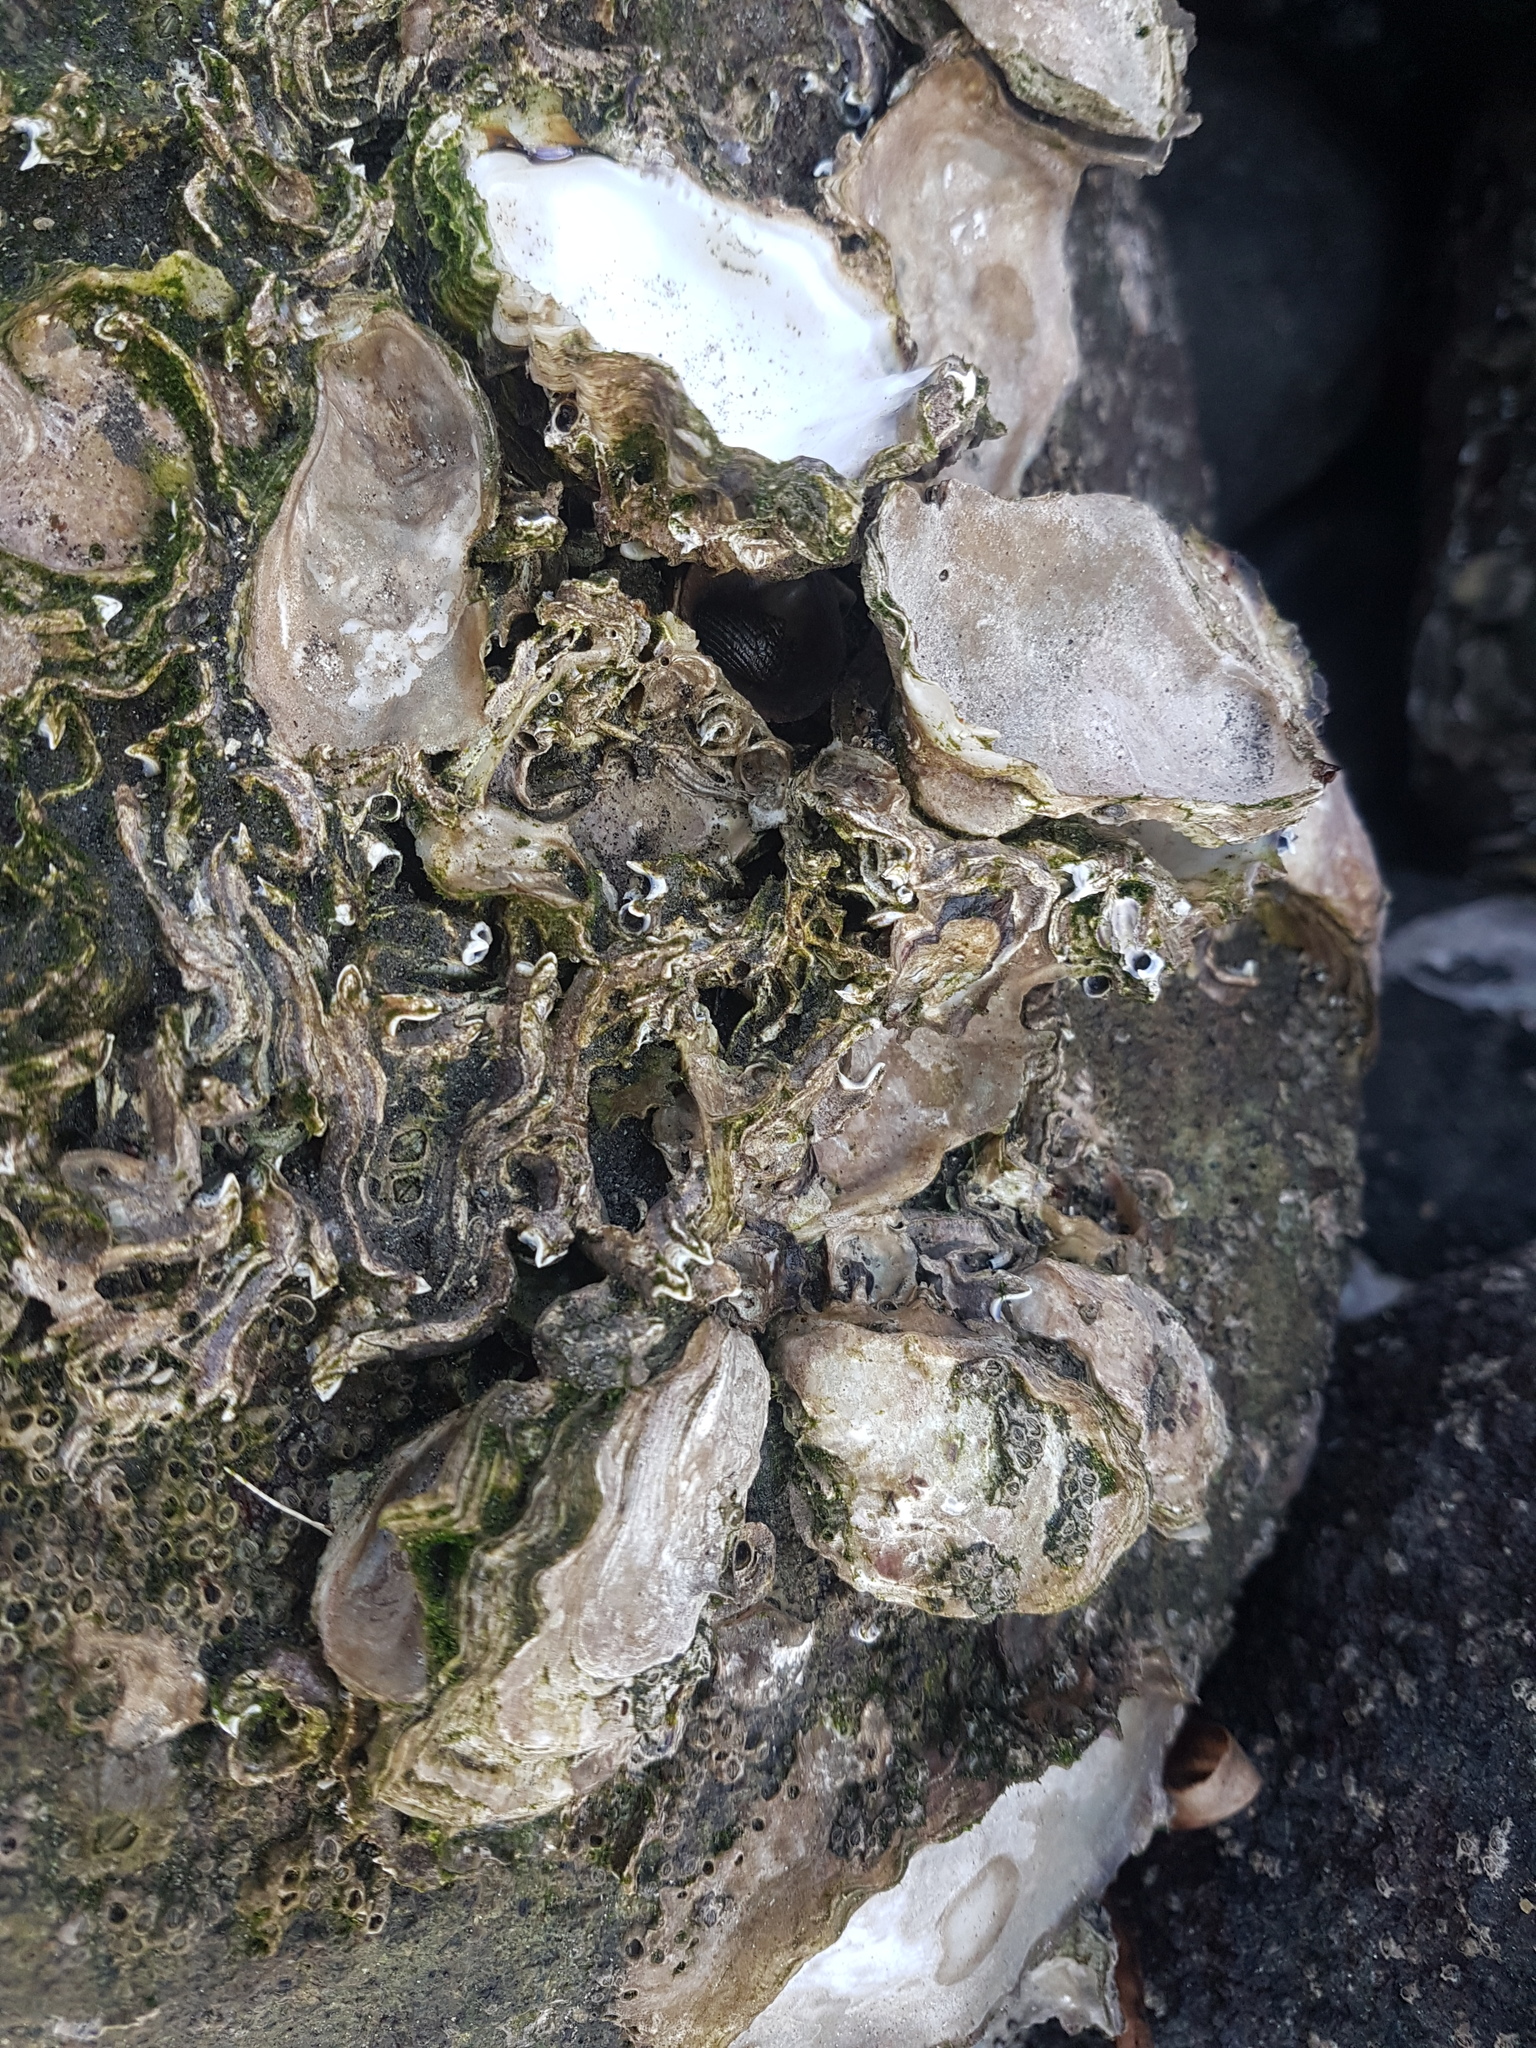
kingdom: Animalia
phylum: Mollusca
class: Bivalvia
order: Ostreida
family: Ostreidae
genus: Saccostrea
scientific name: Saccostrea glomerata
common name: Sydney cupped oyster
